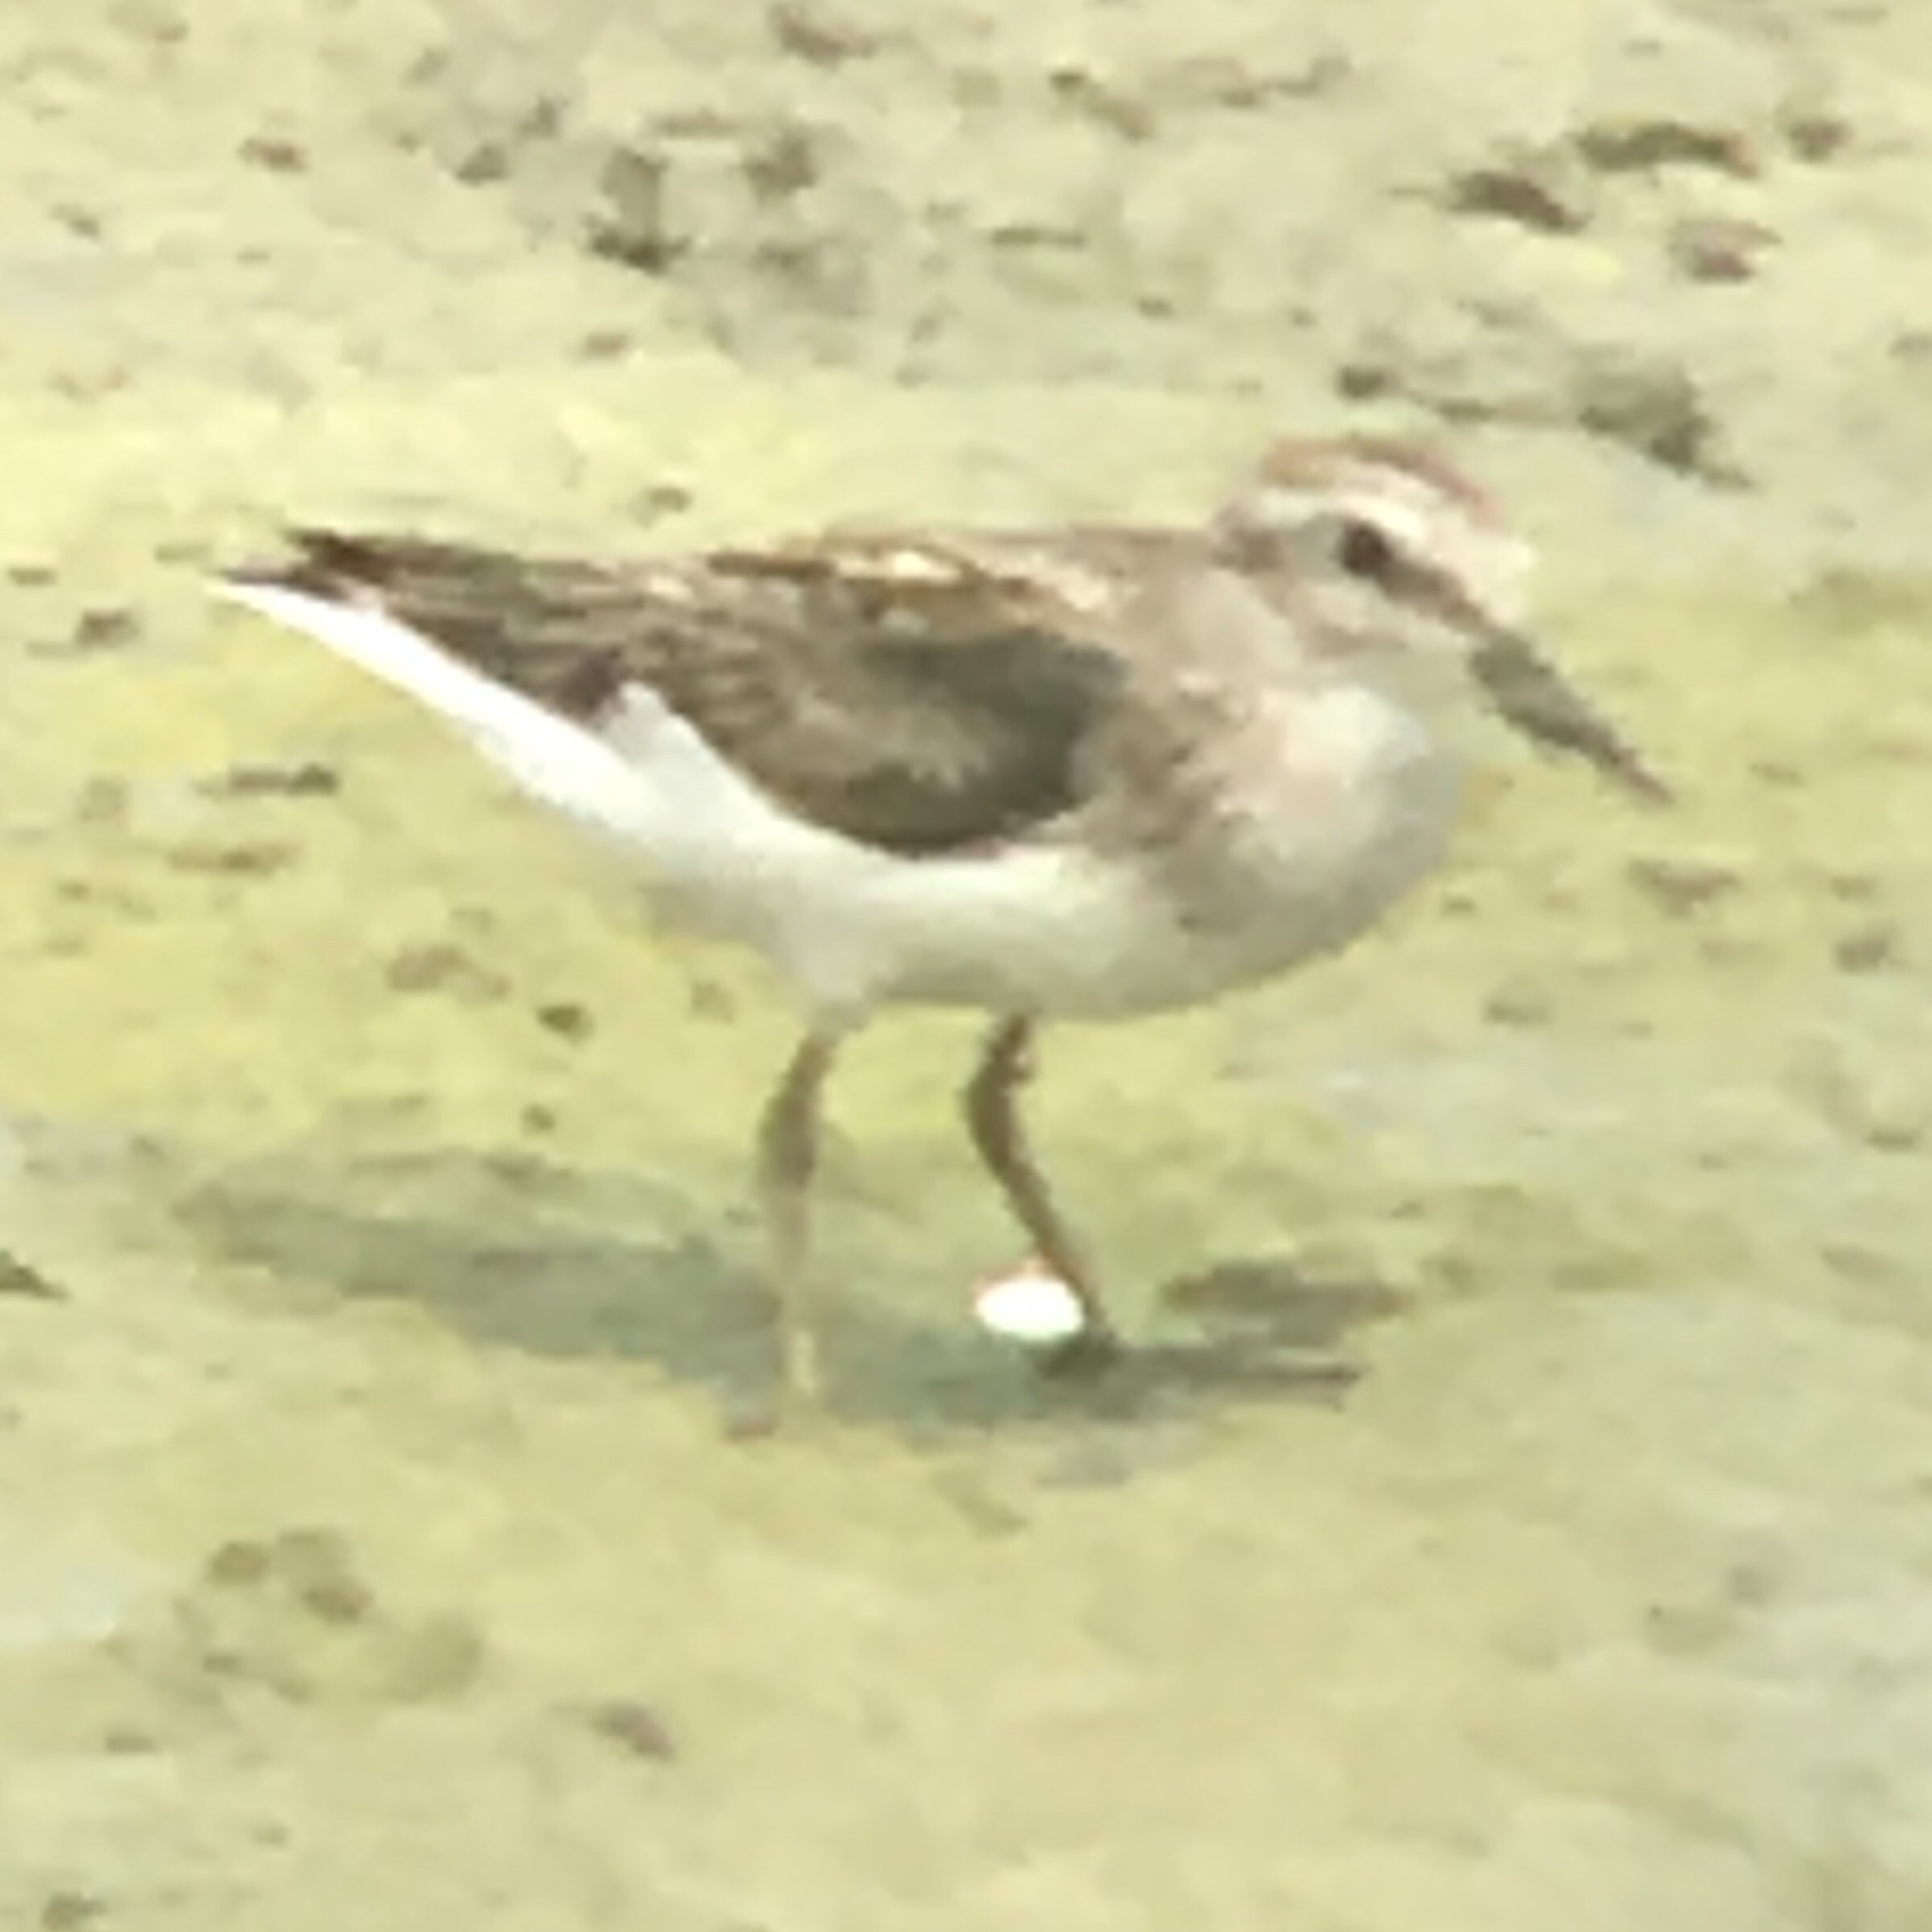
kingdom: Animalia
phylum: Chordata
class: Aves
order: Charadriiformes
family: Scolopacidae
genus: Calidris
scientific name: Calidris minutilla
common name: Least sandpiper
